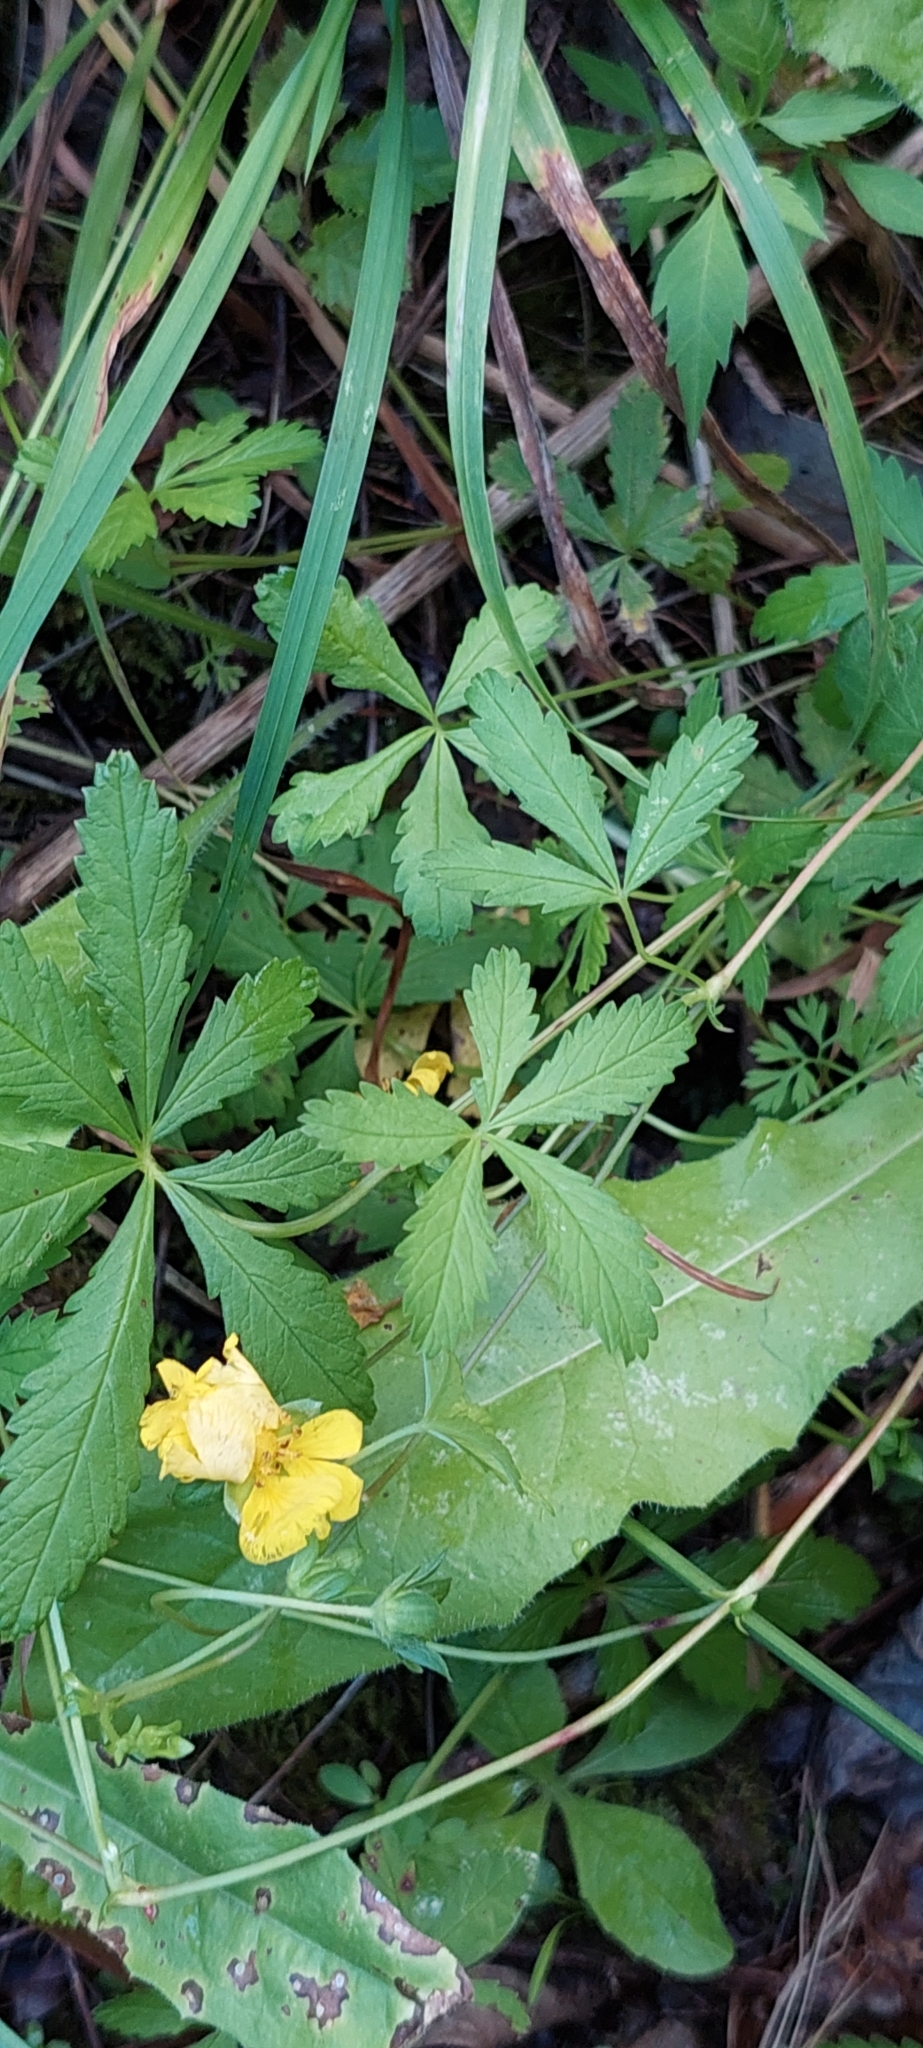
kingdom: Plantae
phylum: Tracheophyta
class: Magnoliopsida
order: Rosales
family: Rosaceae
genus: Potentilla
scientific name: Potentilla reptans
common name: Creeping cinquefoil
